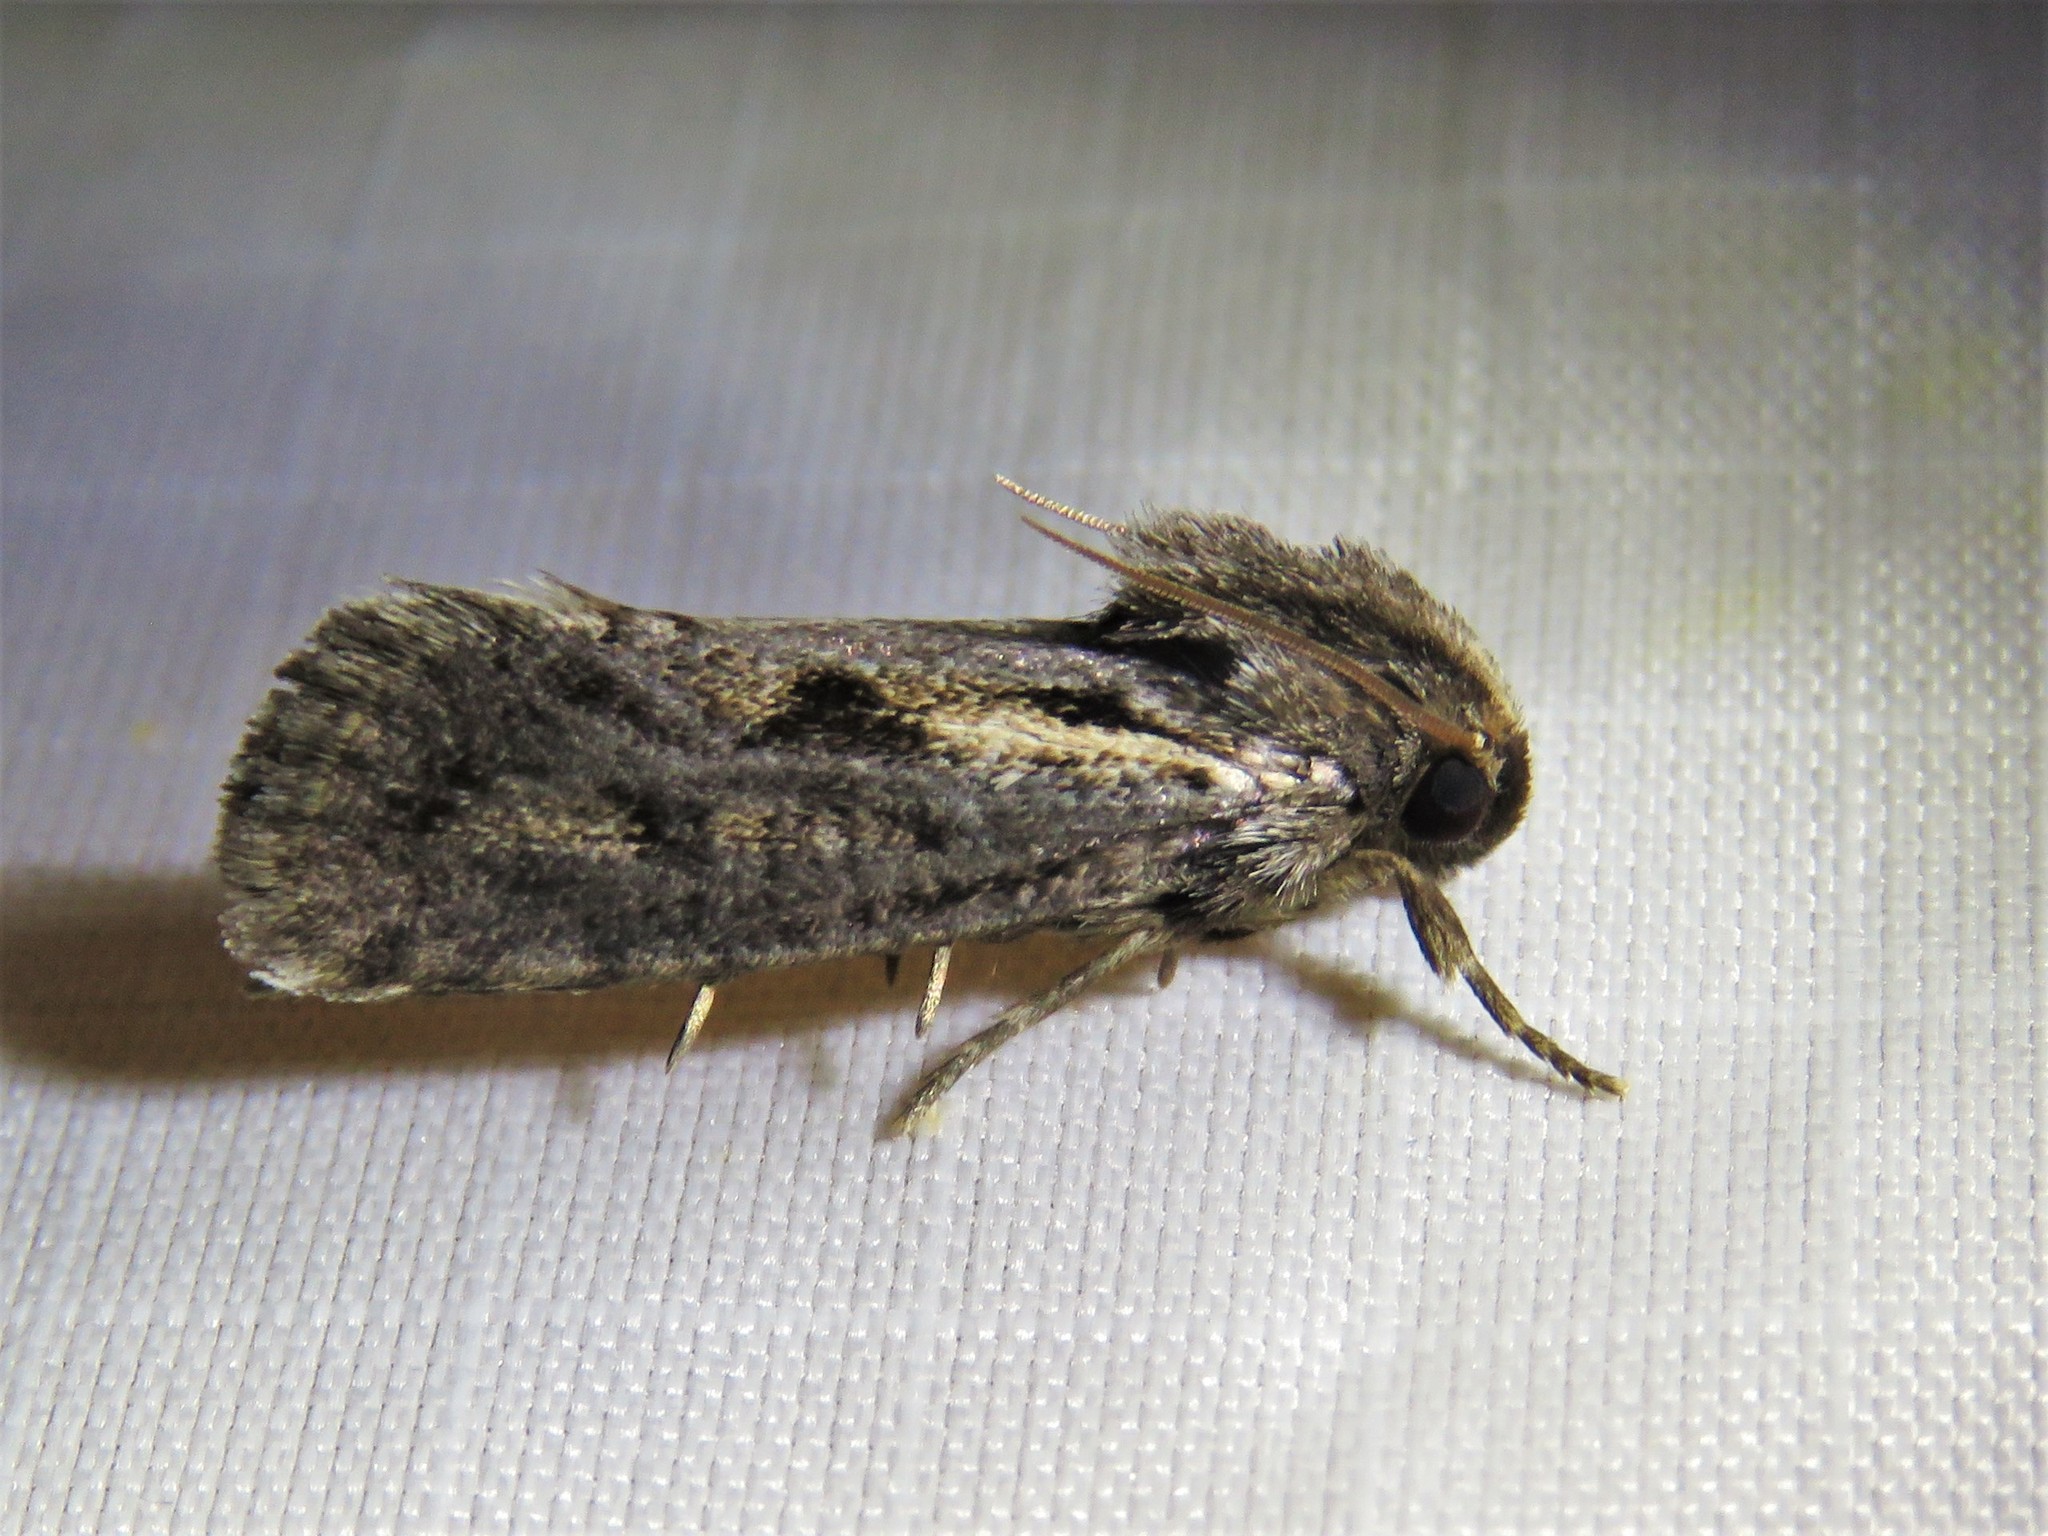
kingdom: Animalia
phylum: Arthropoda
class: Insecta
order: Lepidoptera
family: Tineidae
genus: Acrolophus
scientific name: Acrolophus popeanella
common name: Clemens' grass tubeworm moth
